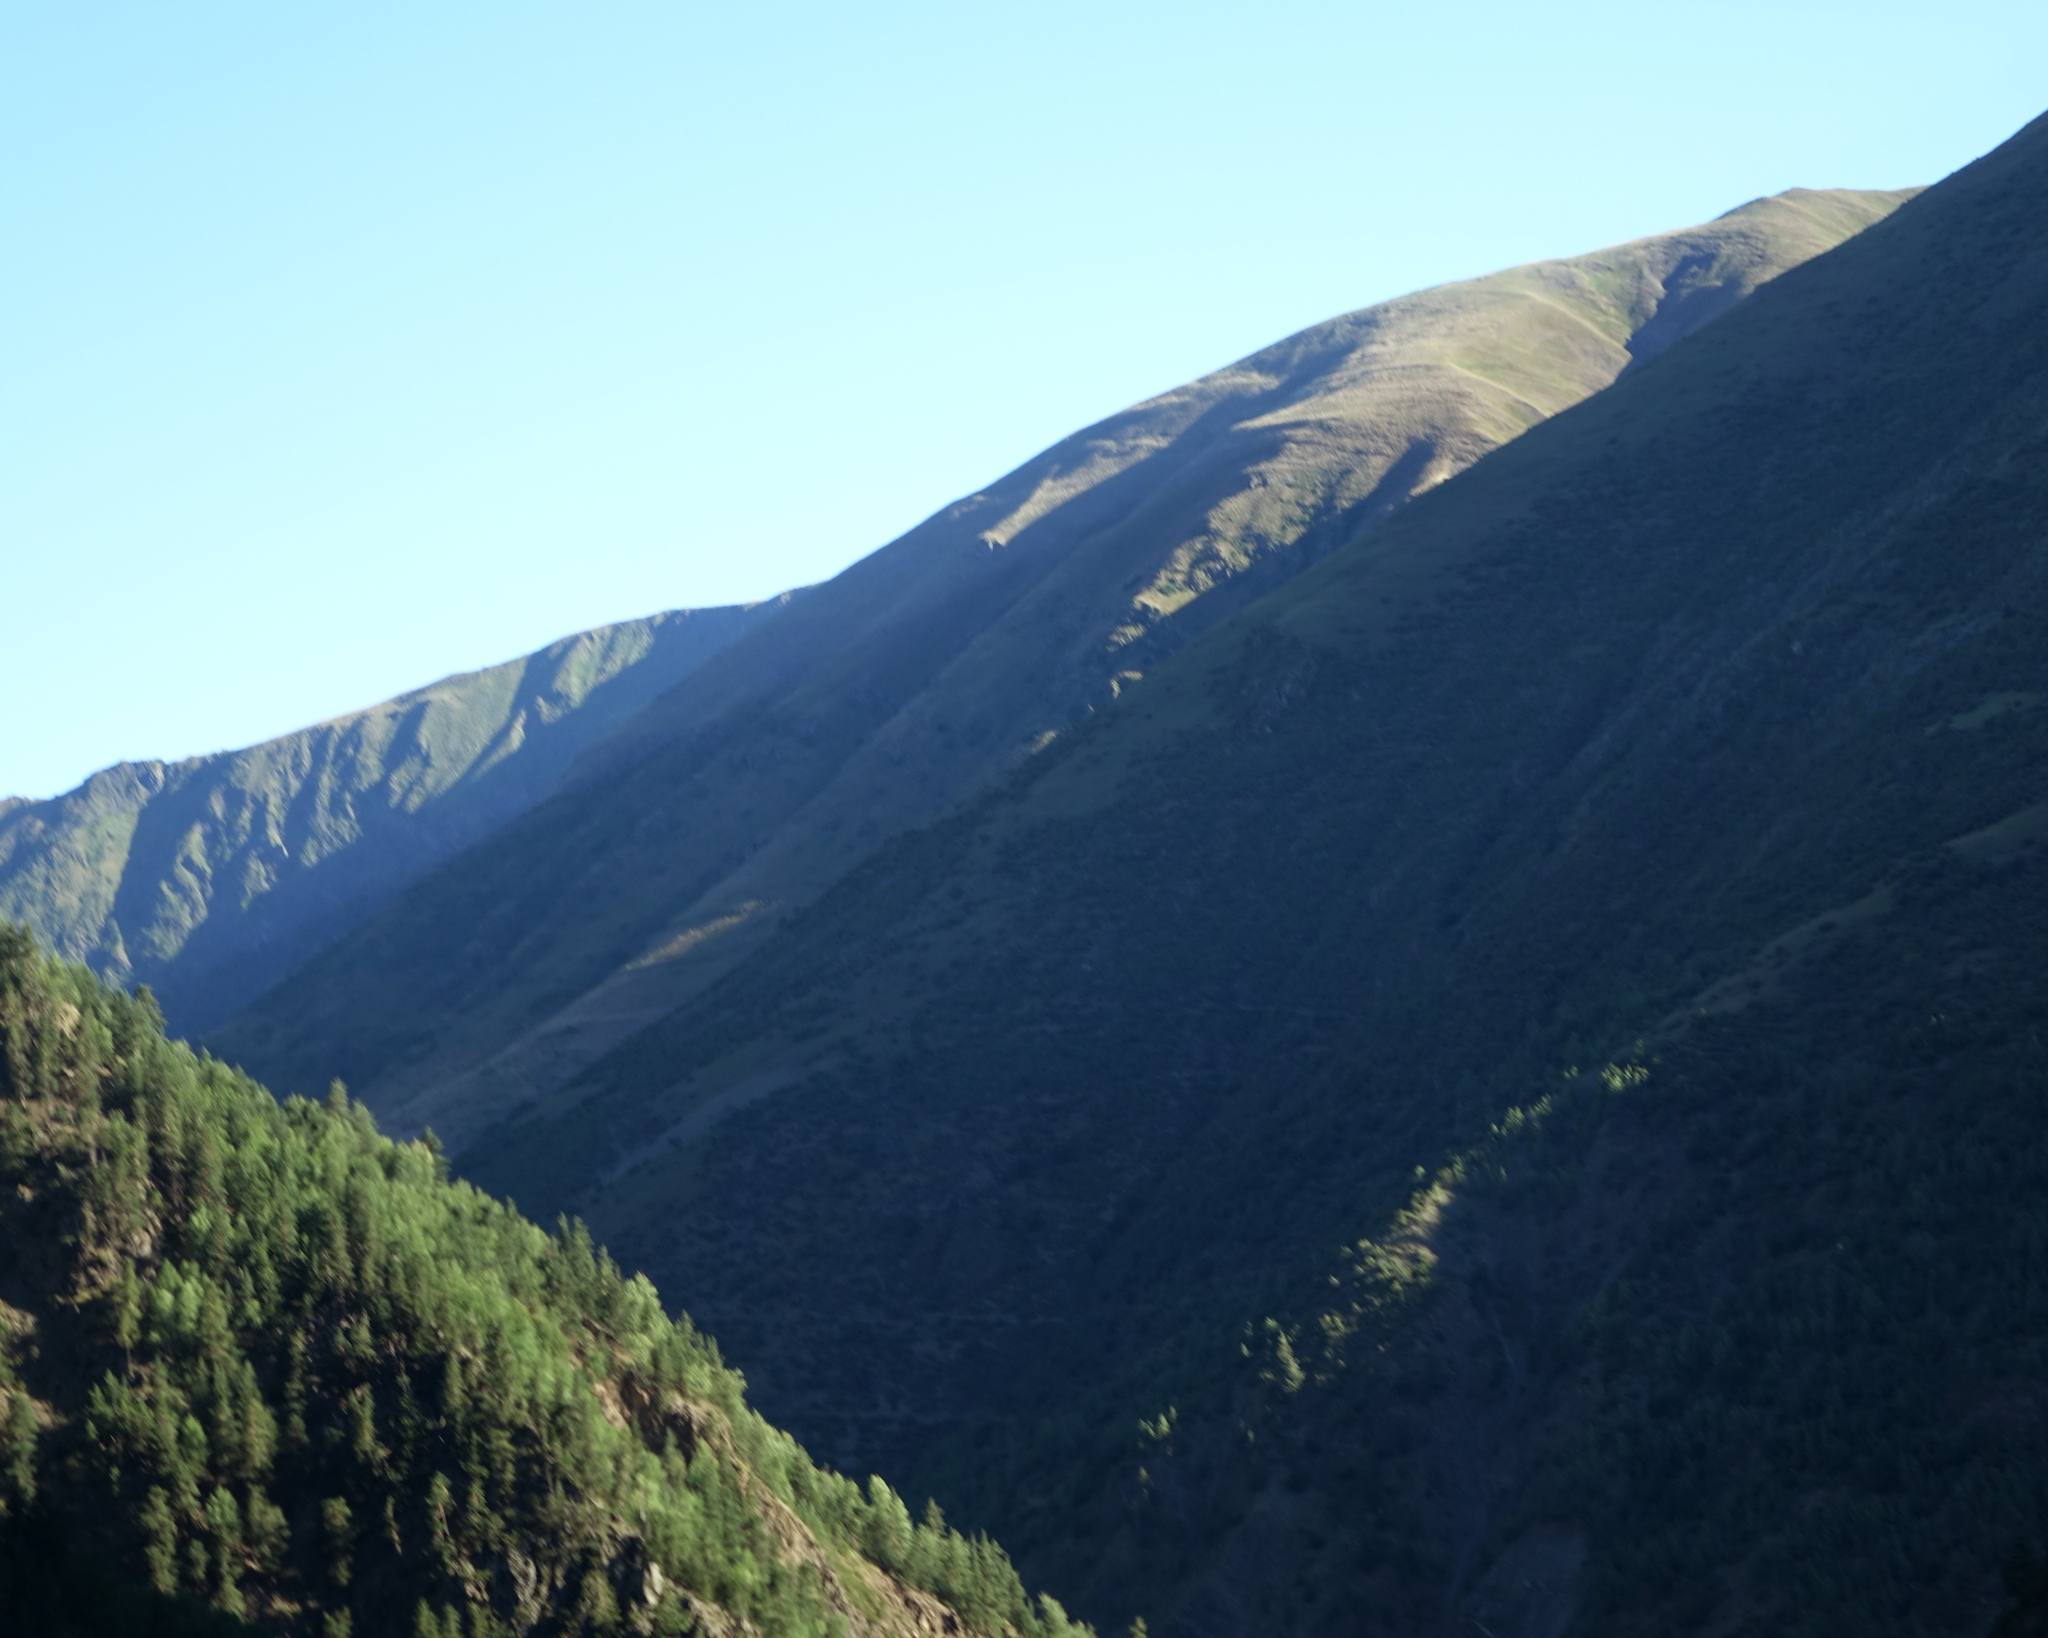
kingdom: Plantae
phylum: Tracheophyta
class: Pinopsida
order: Pinales
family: Pinaceae
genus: Pinus
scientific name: Pinus sylvestris
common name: Scots pine
